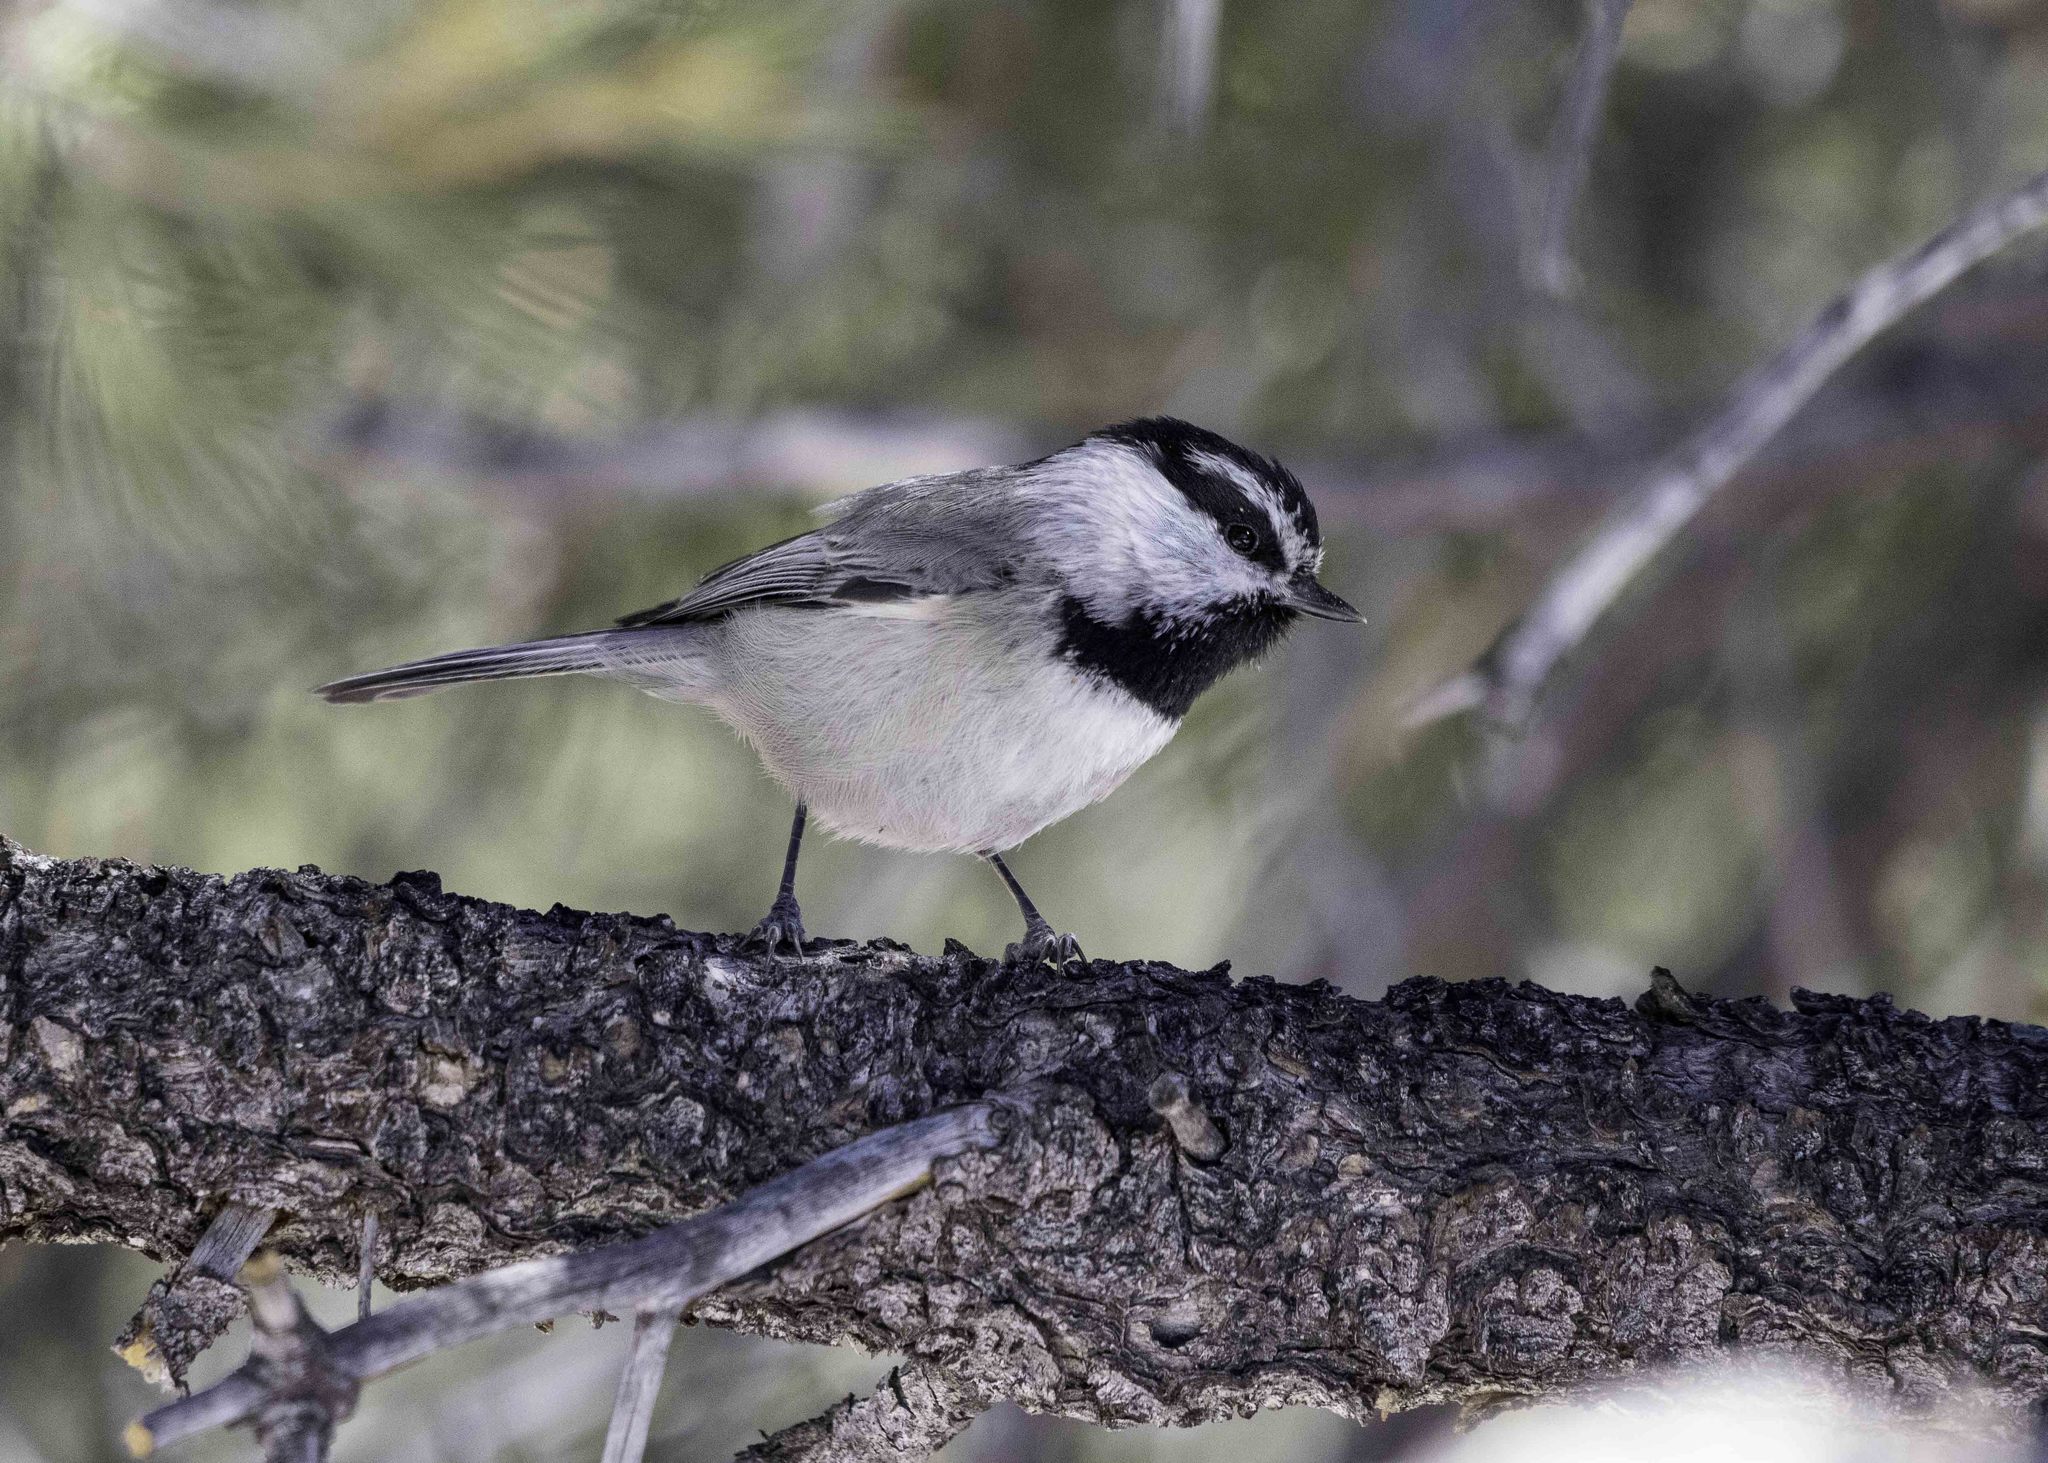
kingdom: Animalia
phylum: Chordata
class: Aves
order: Passeriformes
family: Paridae
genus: Poecile
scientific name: Poecile gambeli
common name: Mountain chickadee
